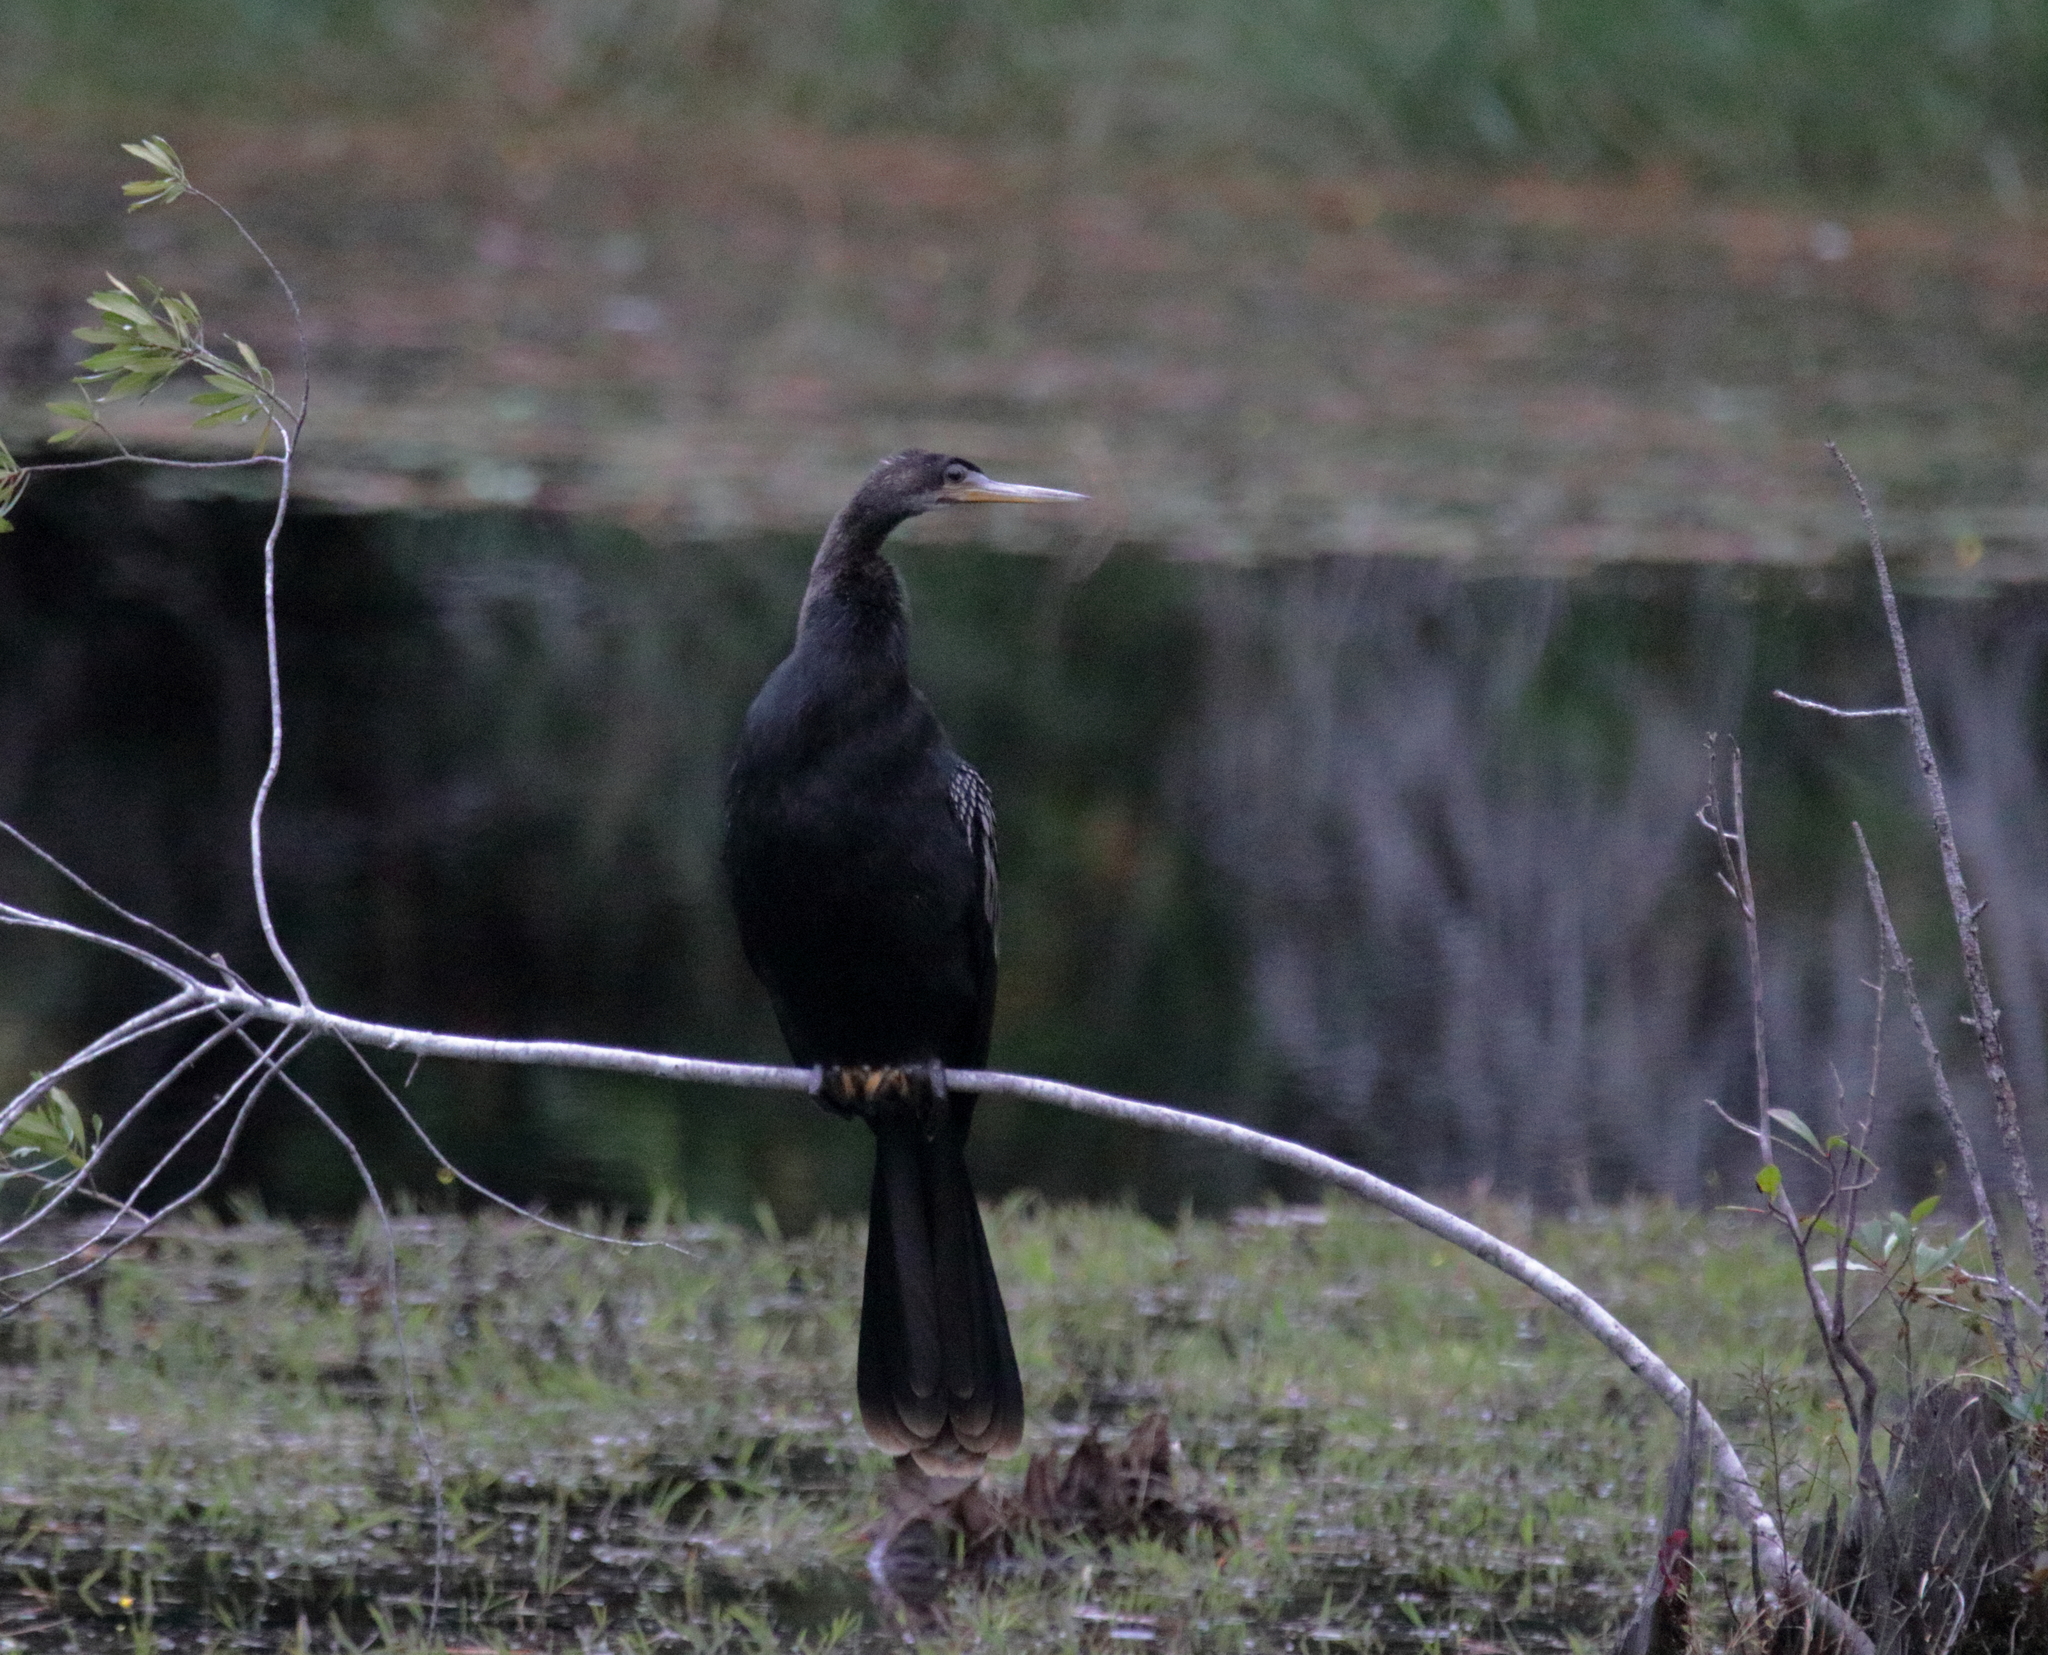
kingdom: Animalia
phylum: Chordata
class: Aves
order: Suliformes
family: Anhingidae
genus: Anhinga
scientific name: Anhinga anhinga
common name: Anhinga
